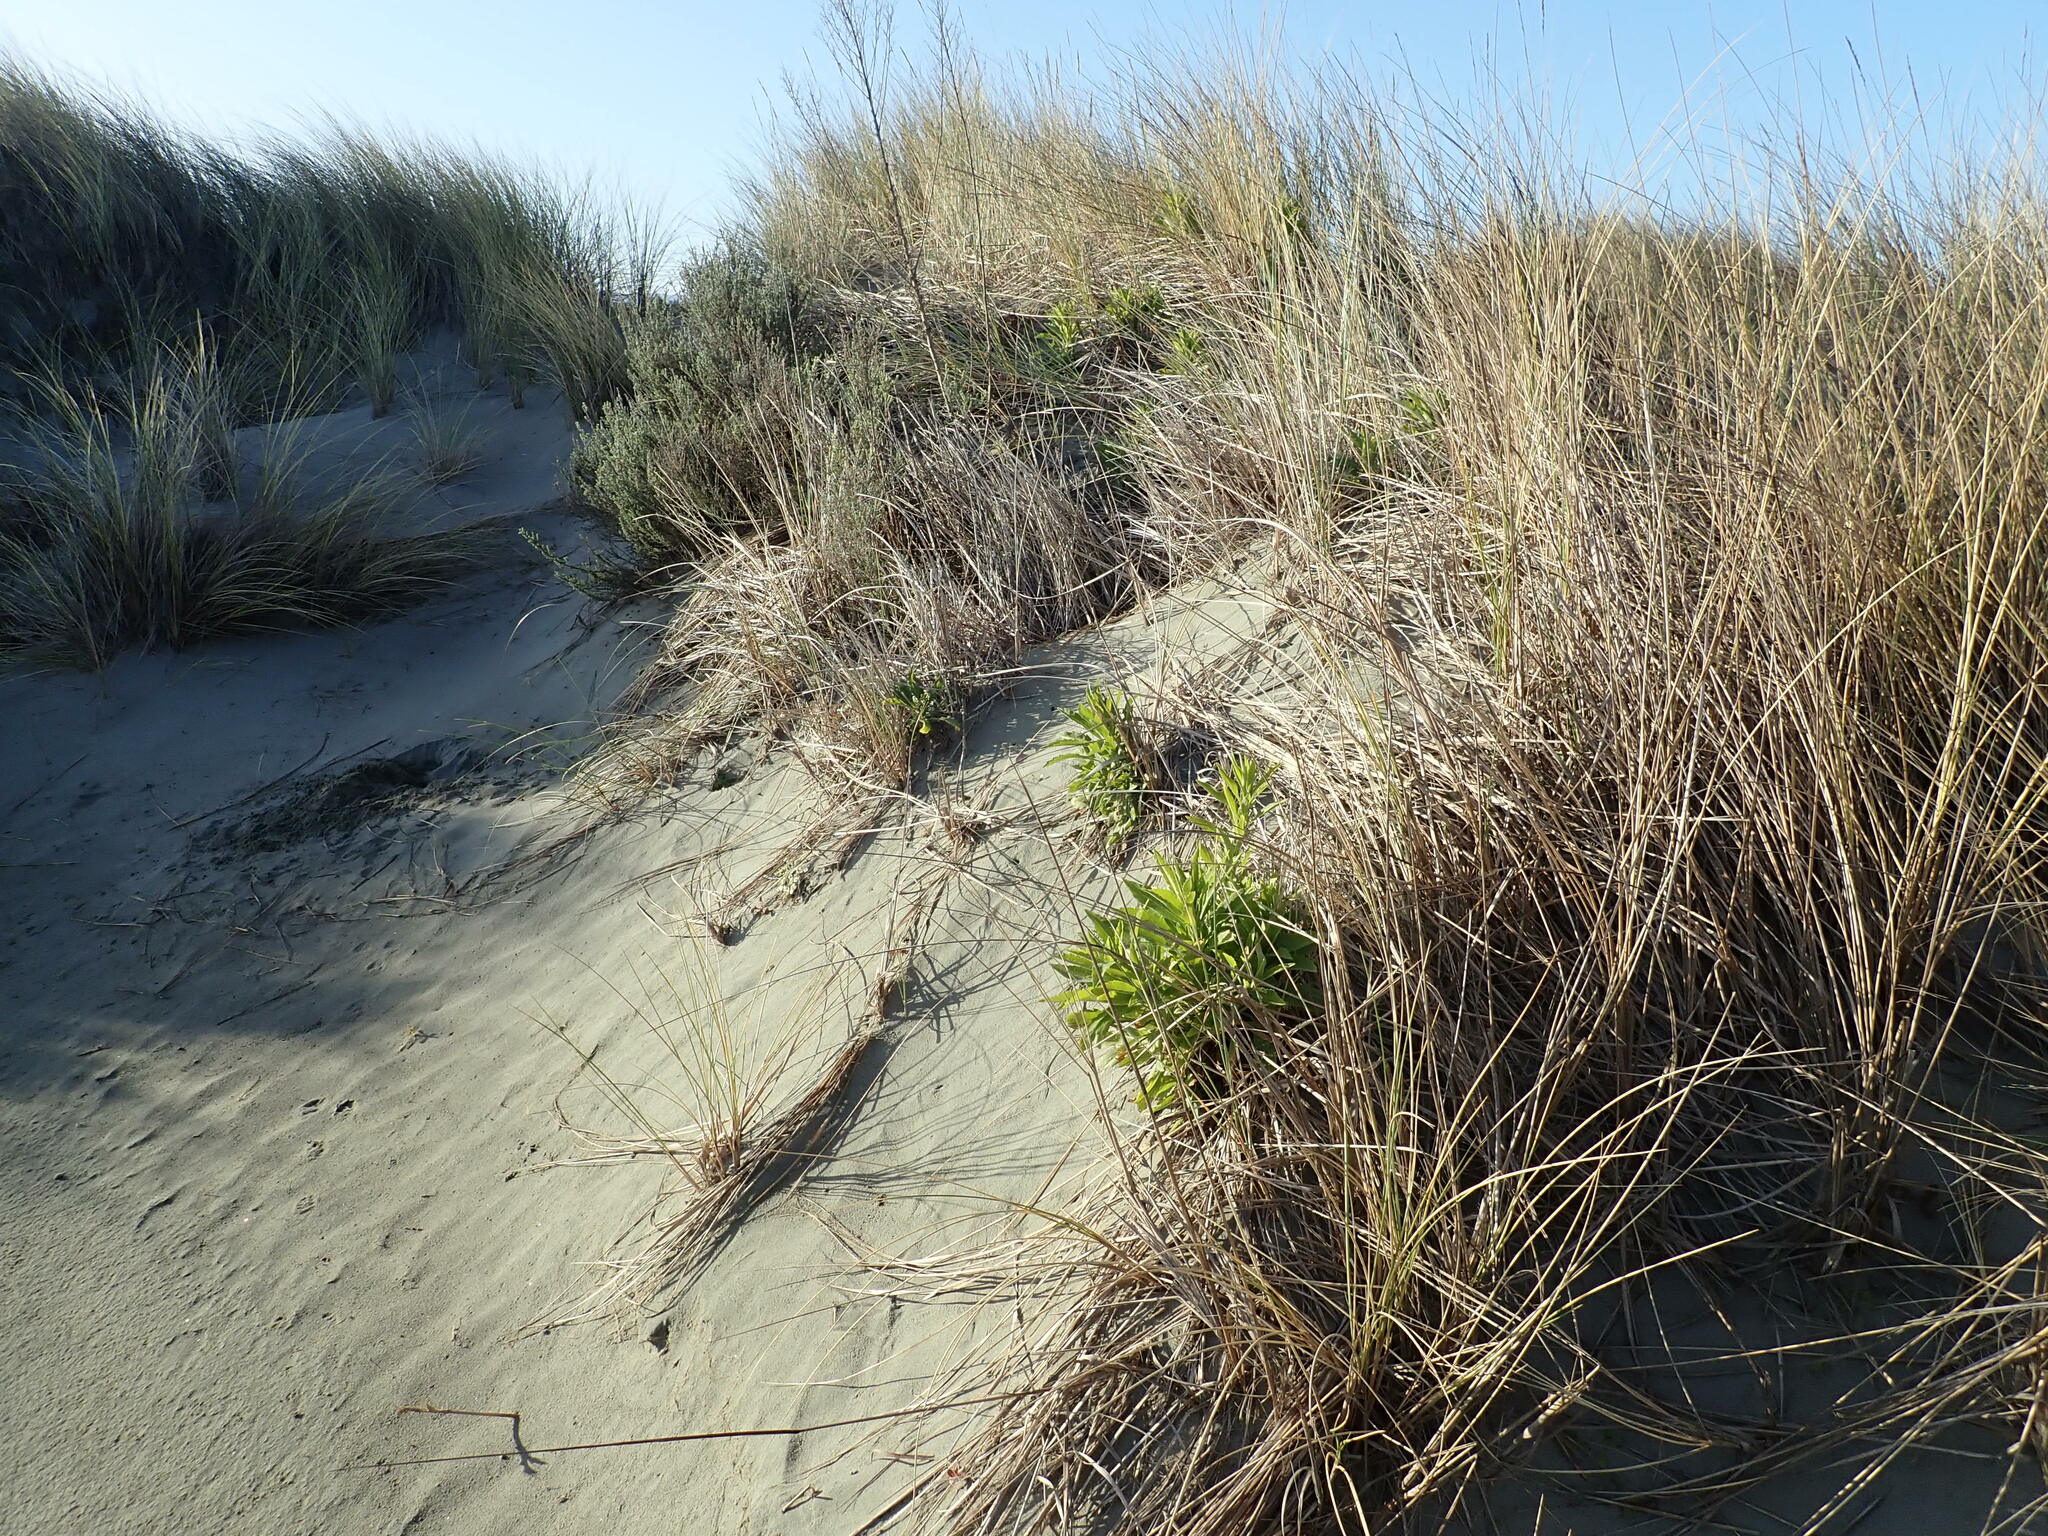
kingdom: Plantae
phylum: Tracheophyta
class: Magnoliopsida
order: Asterales
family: Asteraceae
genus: Erigeron
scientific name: Erigeron sumatrensis
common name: Daisy
